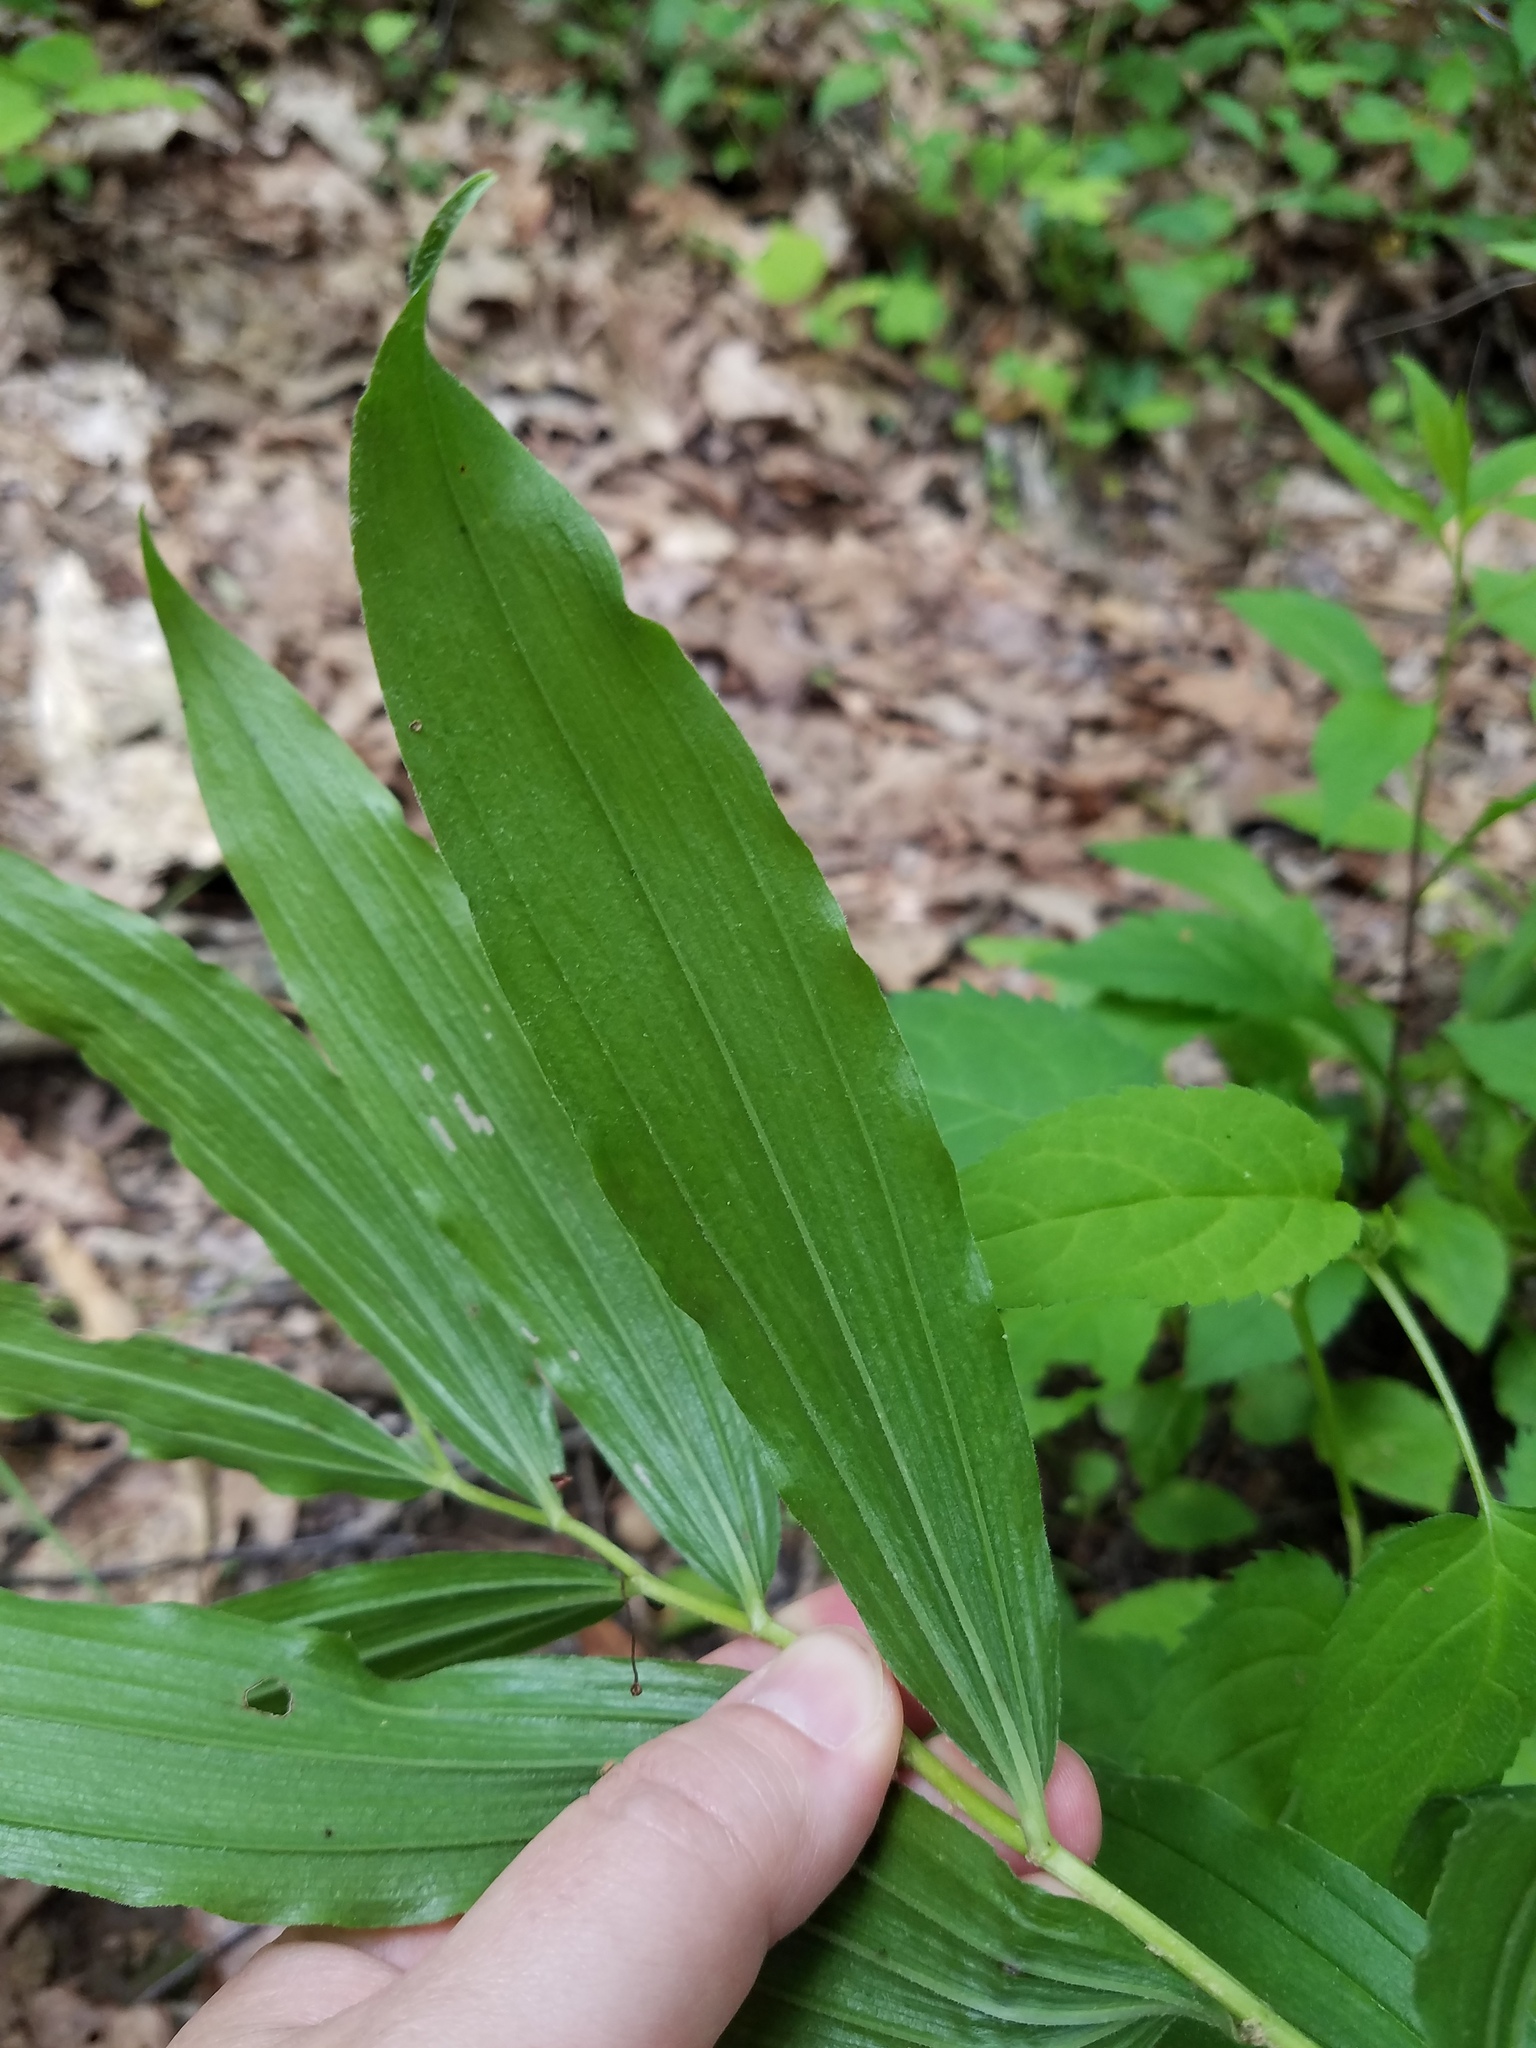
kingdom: Plantae
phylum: Tracheophyta
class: Liliopsida
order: Asparagales
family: Asparagaceae
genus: Maianthemum
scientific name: Maianthemum racemosum
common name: False spikenard
